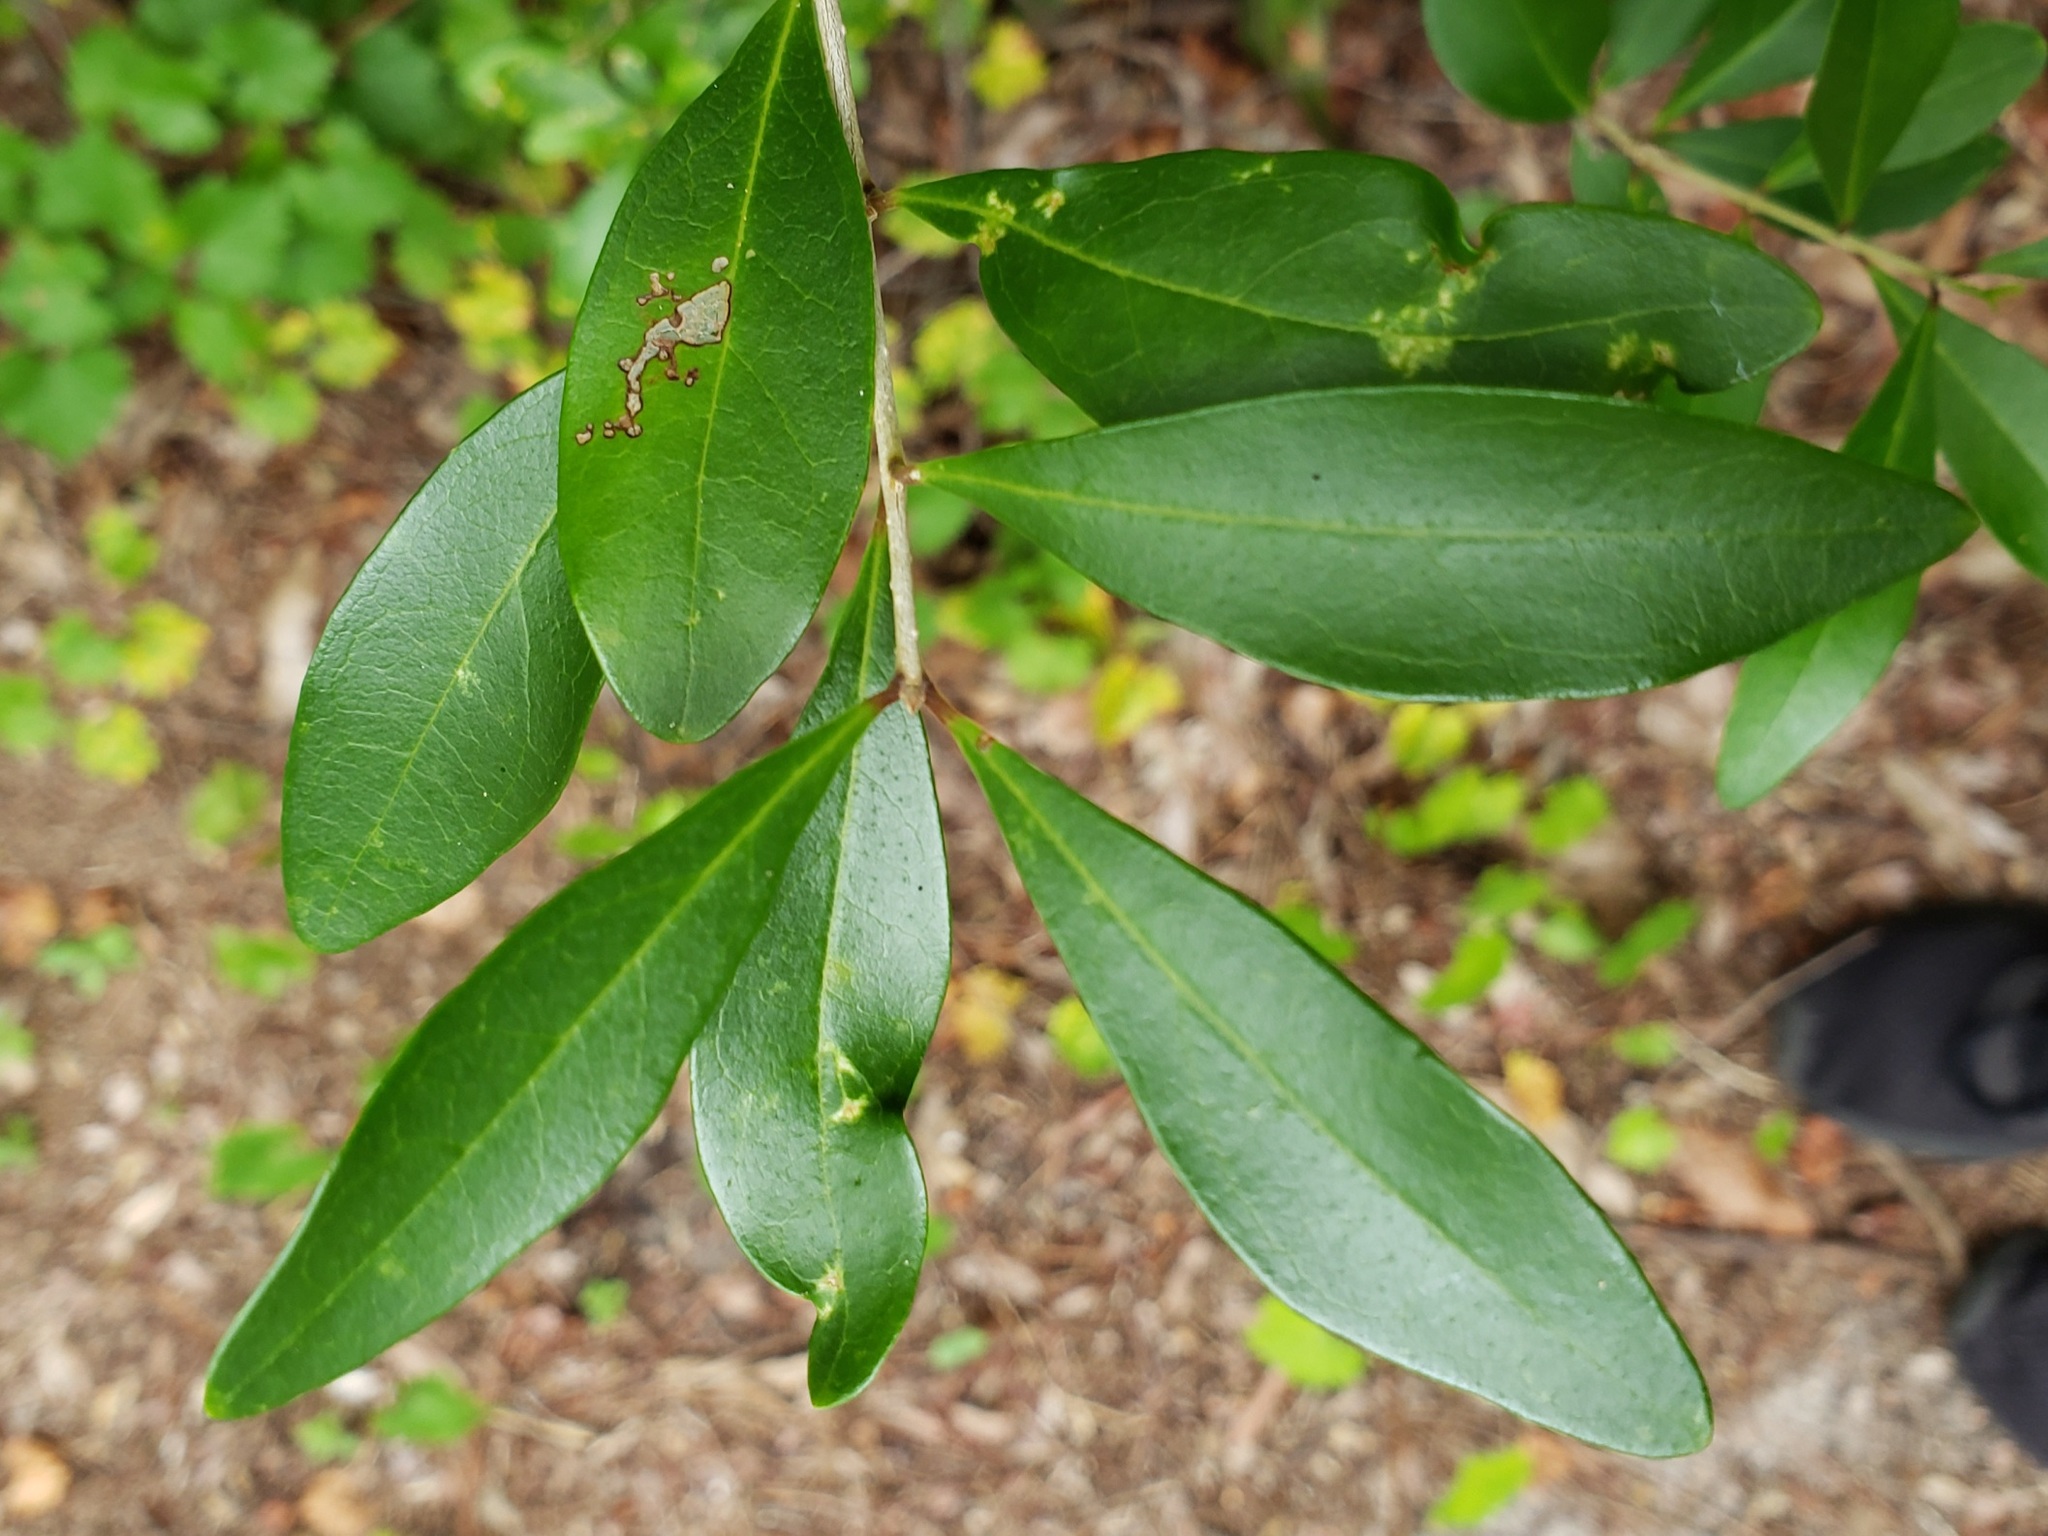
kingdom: Plantae
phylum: Tracheophyta
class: Magnoliopsida
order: Lamiales
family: Oleaceae
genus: Cartrema
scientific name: Cartrema americana
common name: Devilwood
